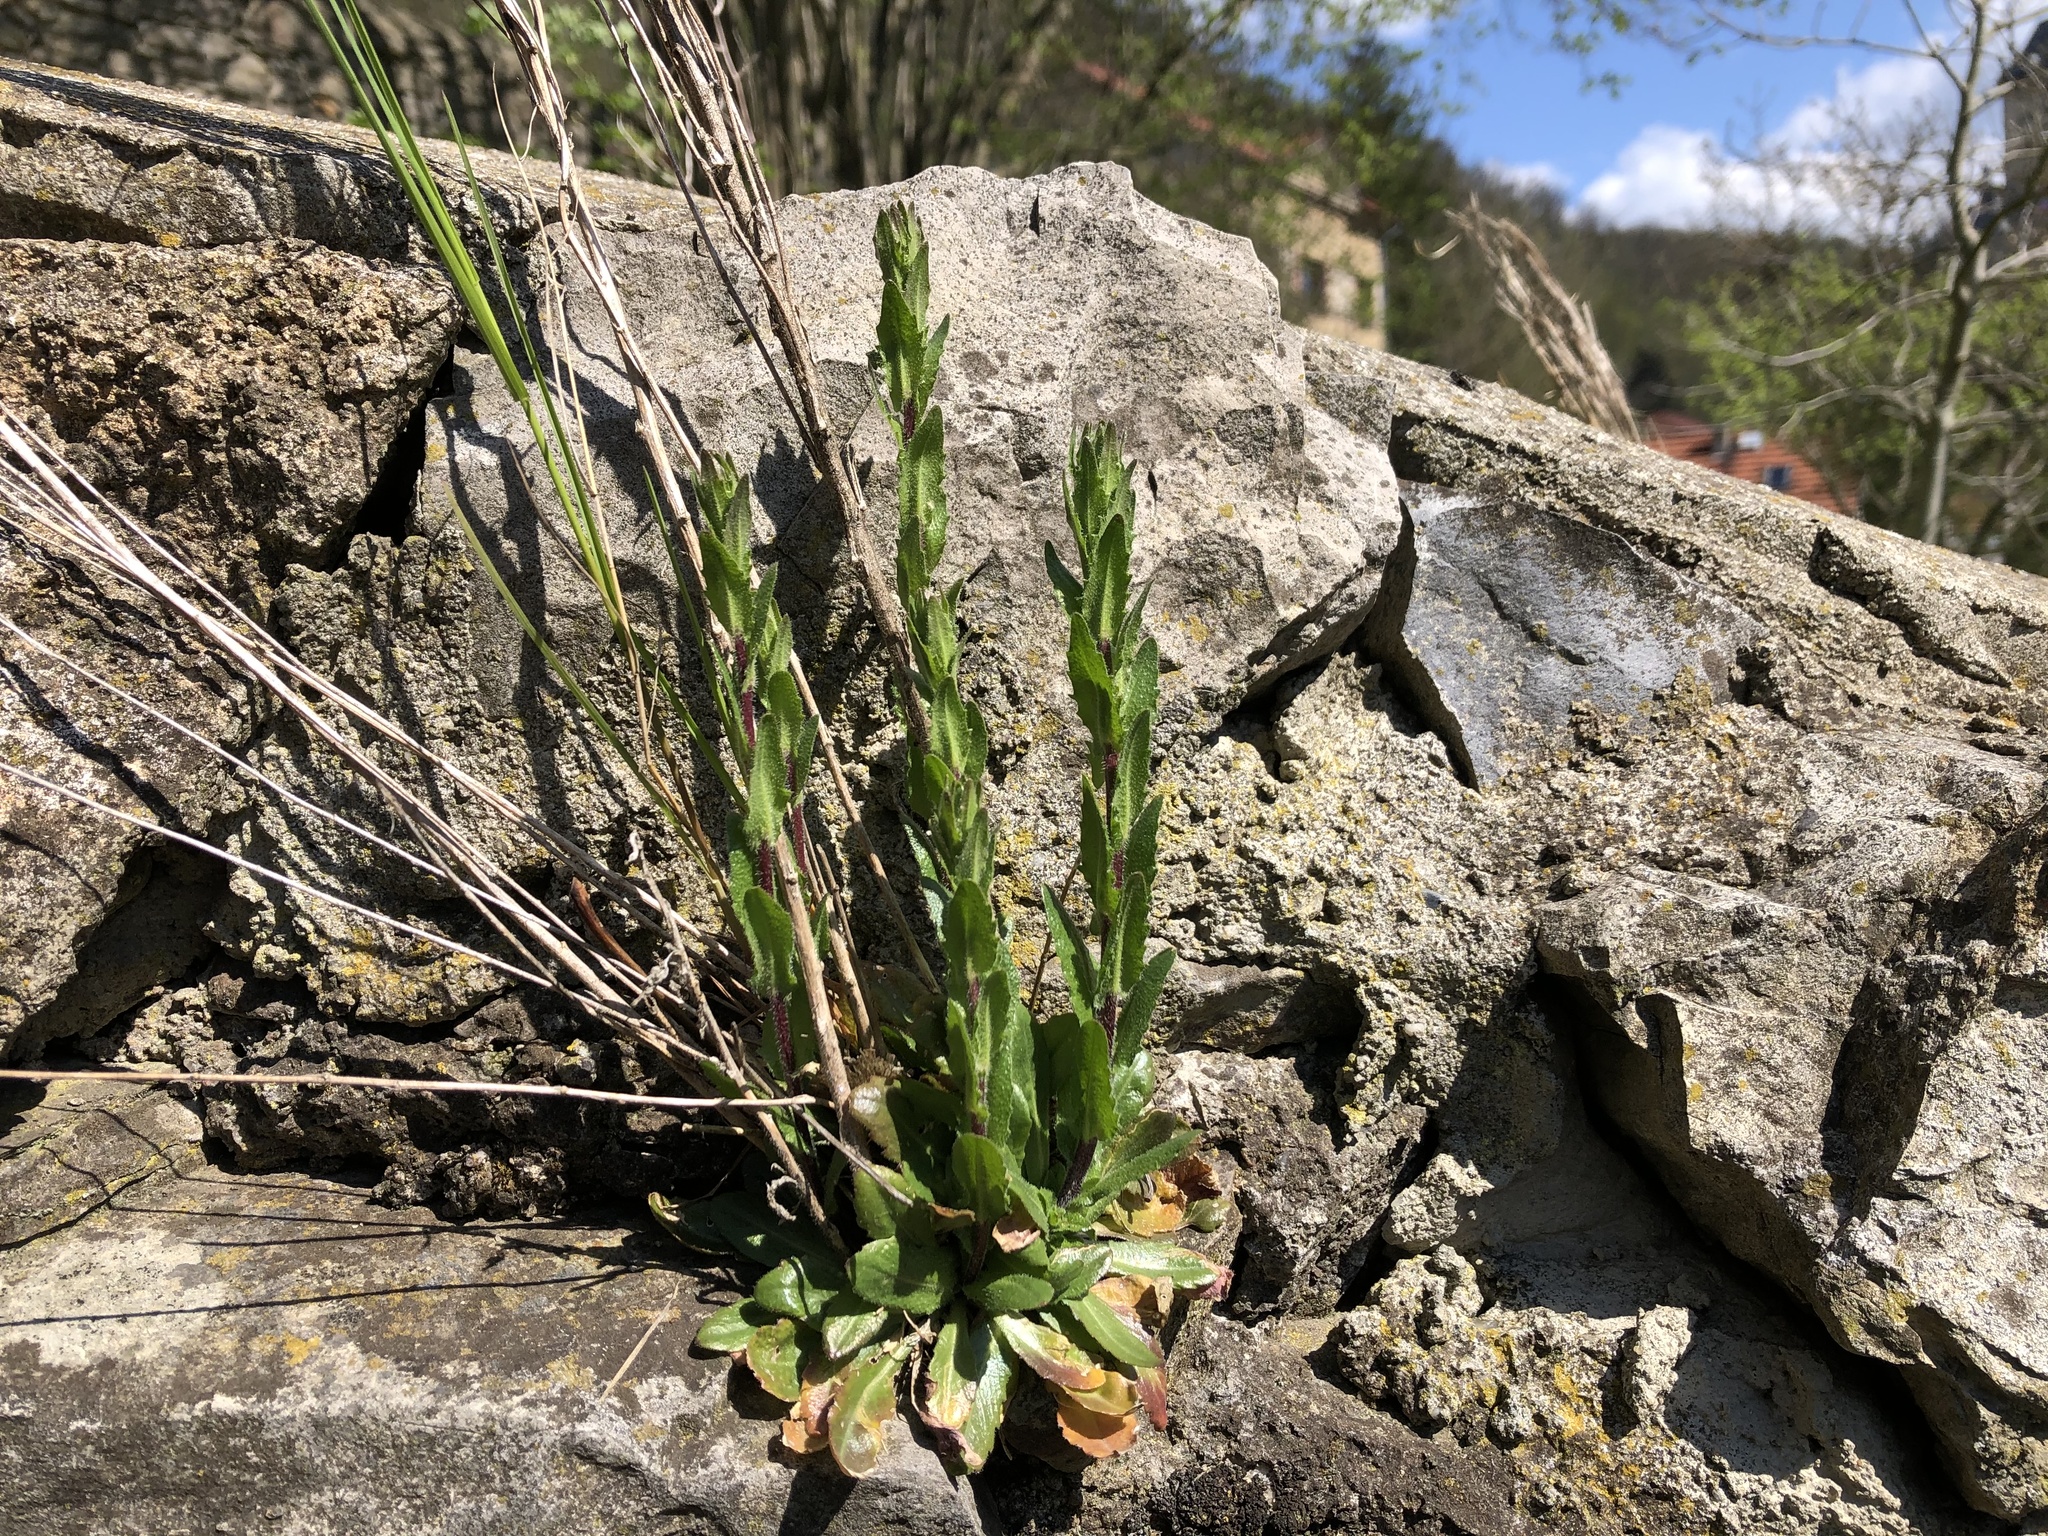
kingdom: Plantae
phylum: Tracheophyta
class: Magnoliopsida
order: Brassicales
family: Brassicaceae
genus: Arabis
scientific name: Arabis hirsuta
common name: Hairy rock-cress
